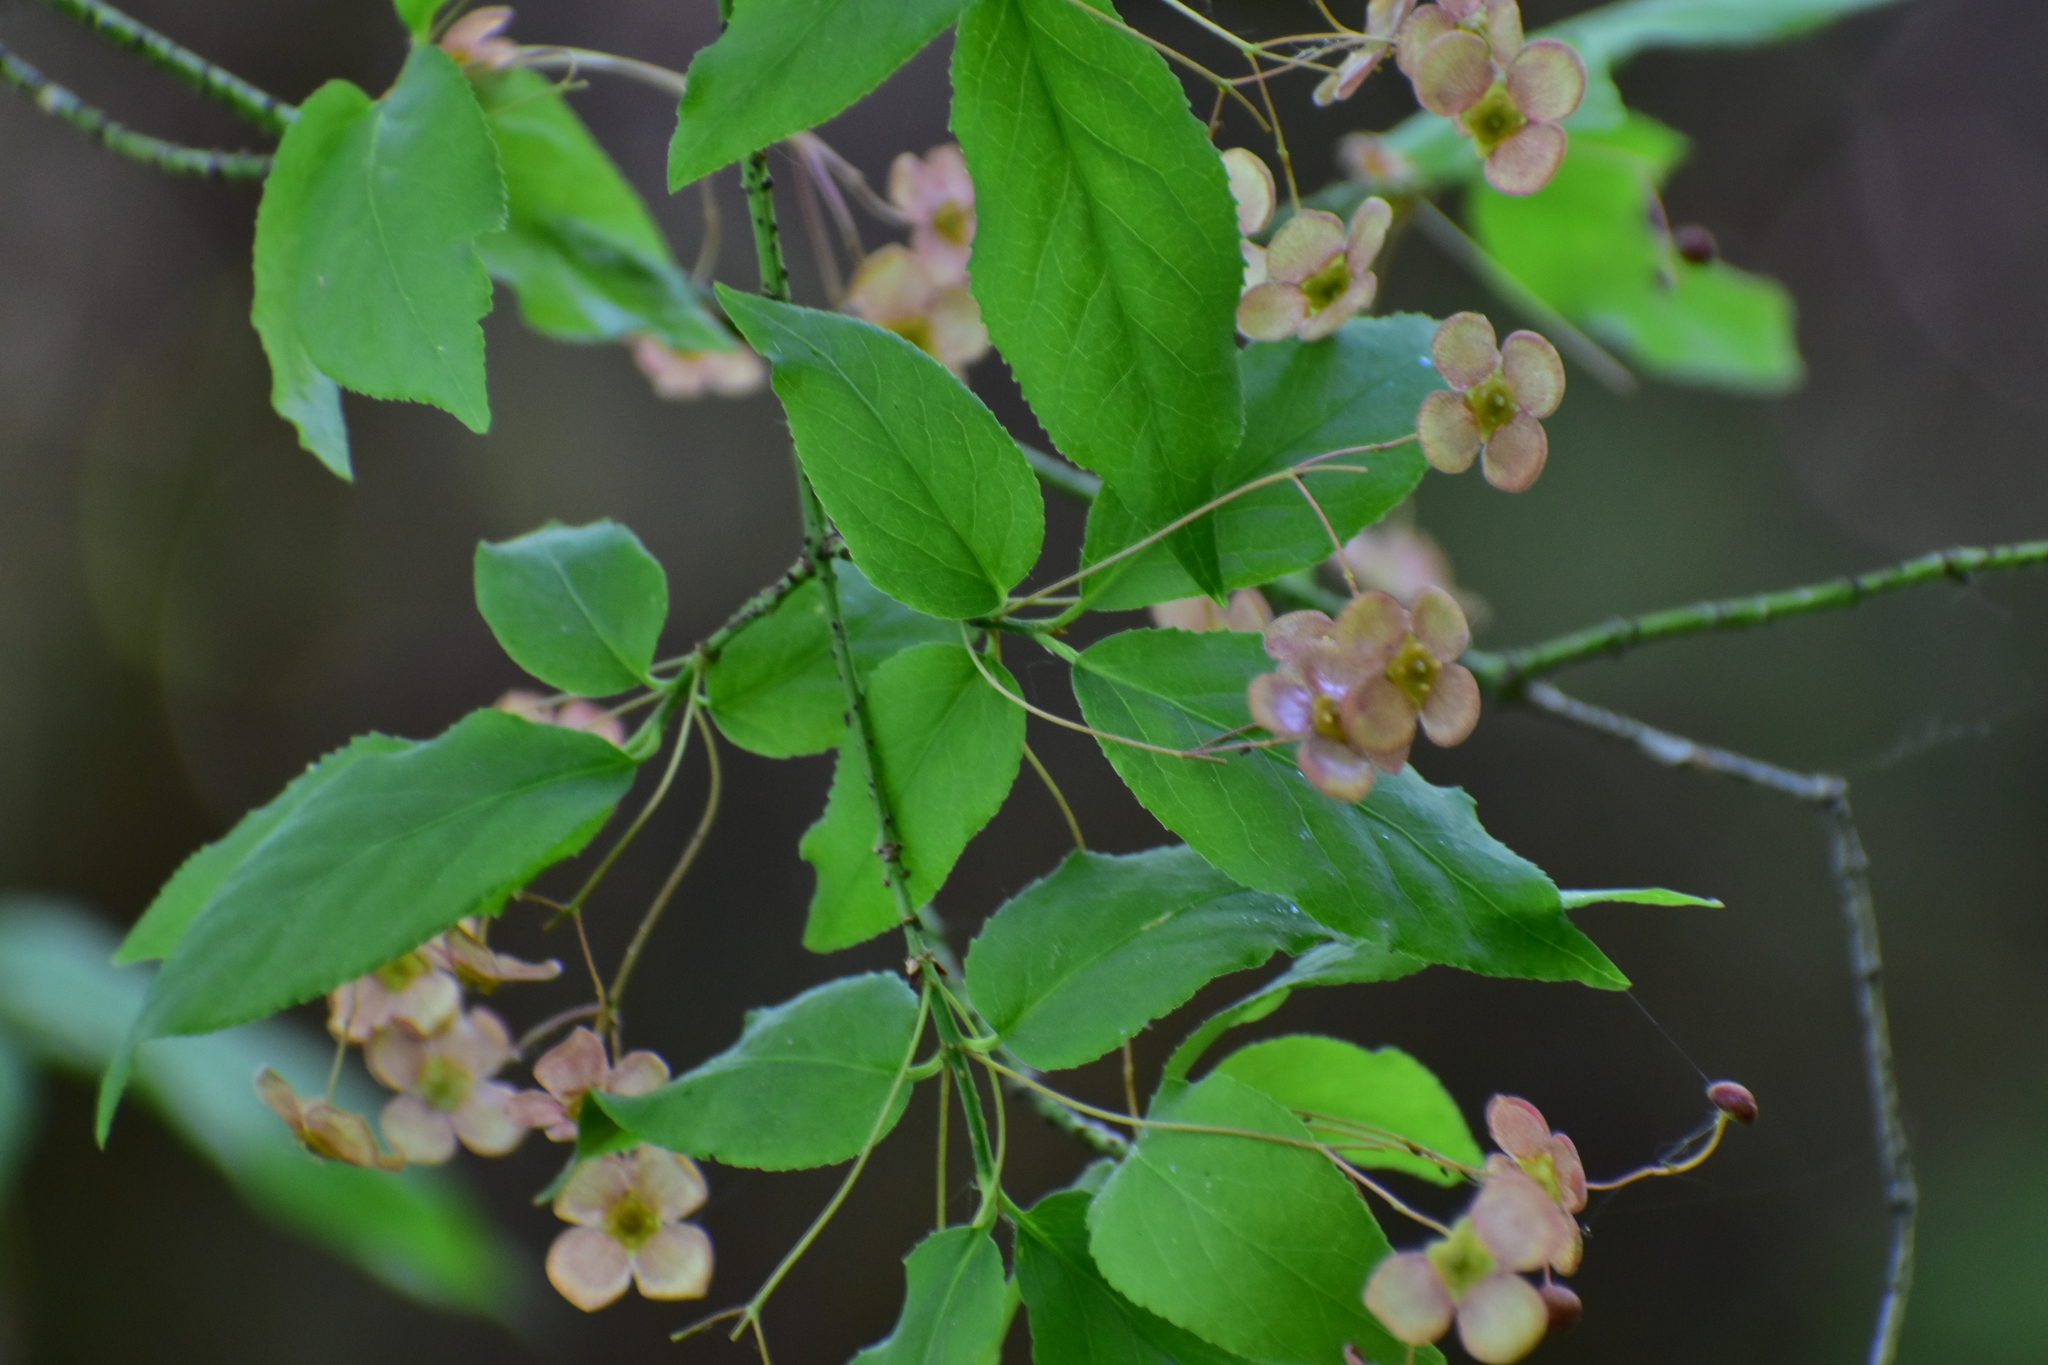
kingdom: Plantae
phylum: Tracheophyta
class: Magnoliopsida
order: Celastrales
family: Celastraceae
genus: Euonymus
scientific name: Euonymus verrucosus
